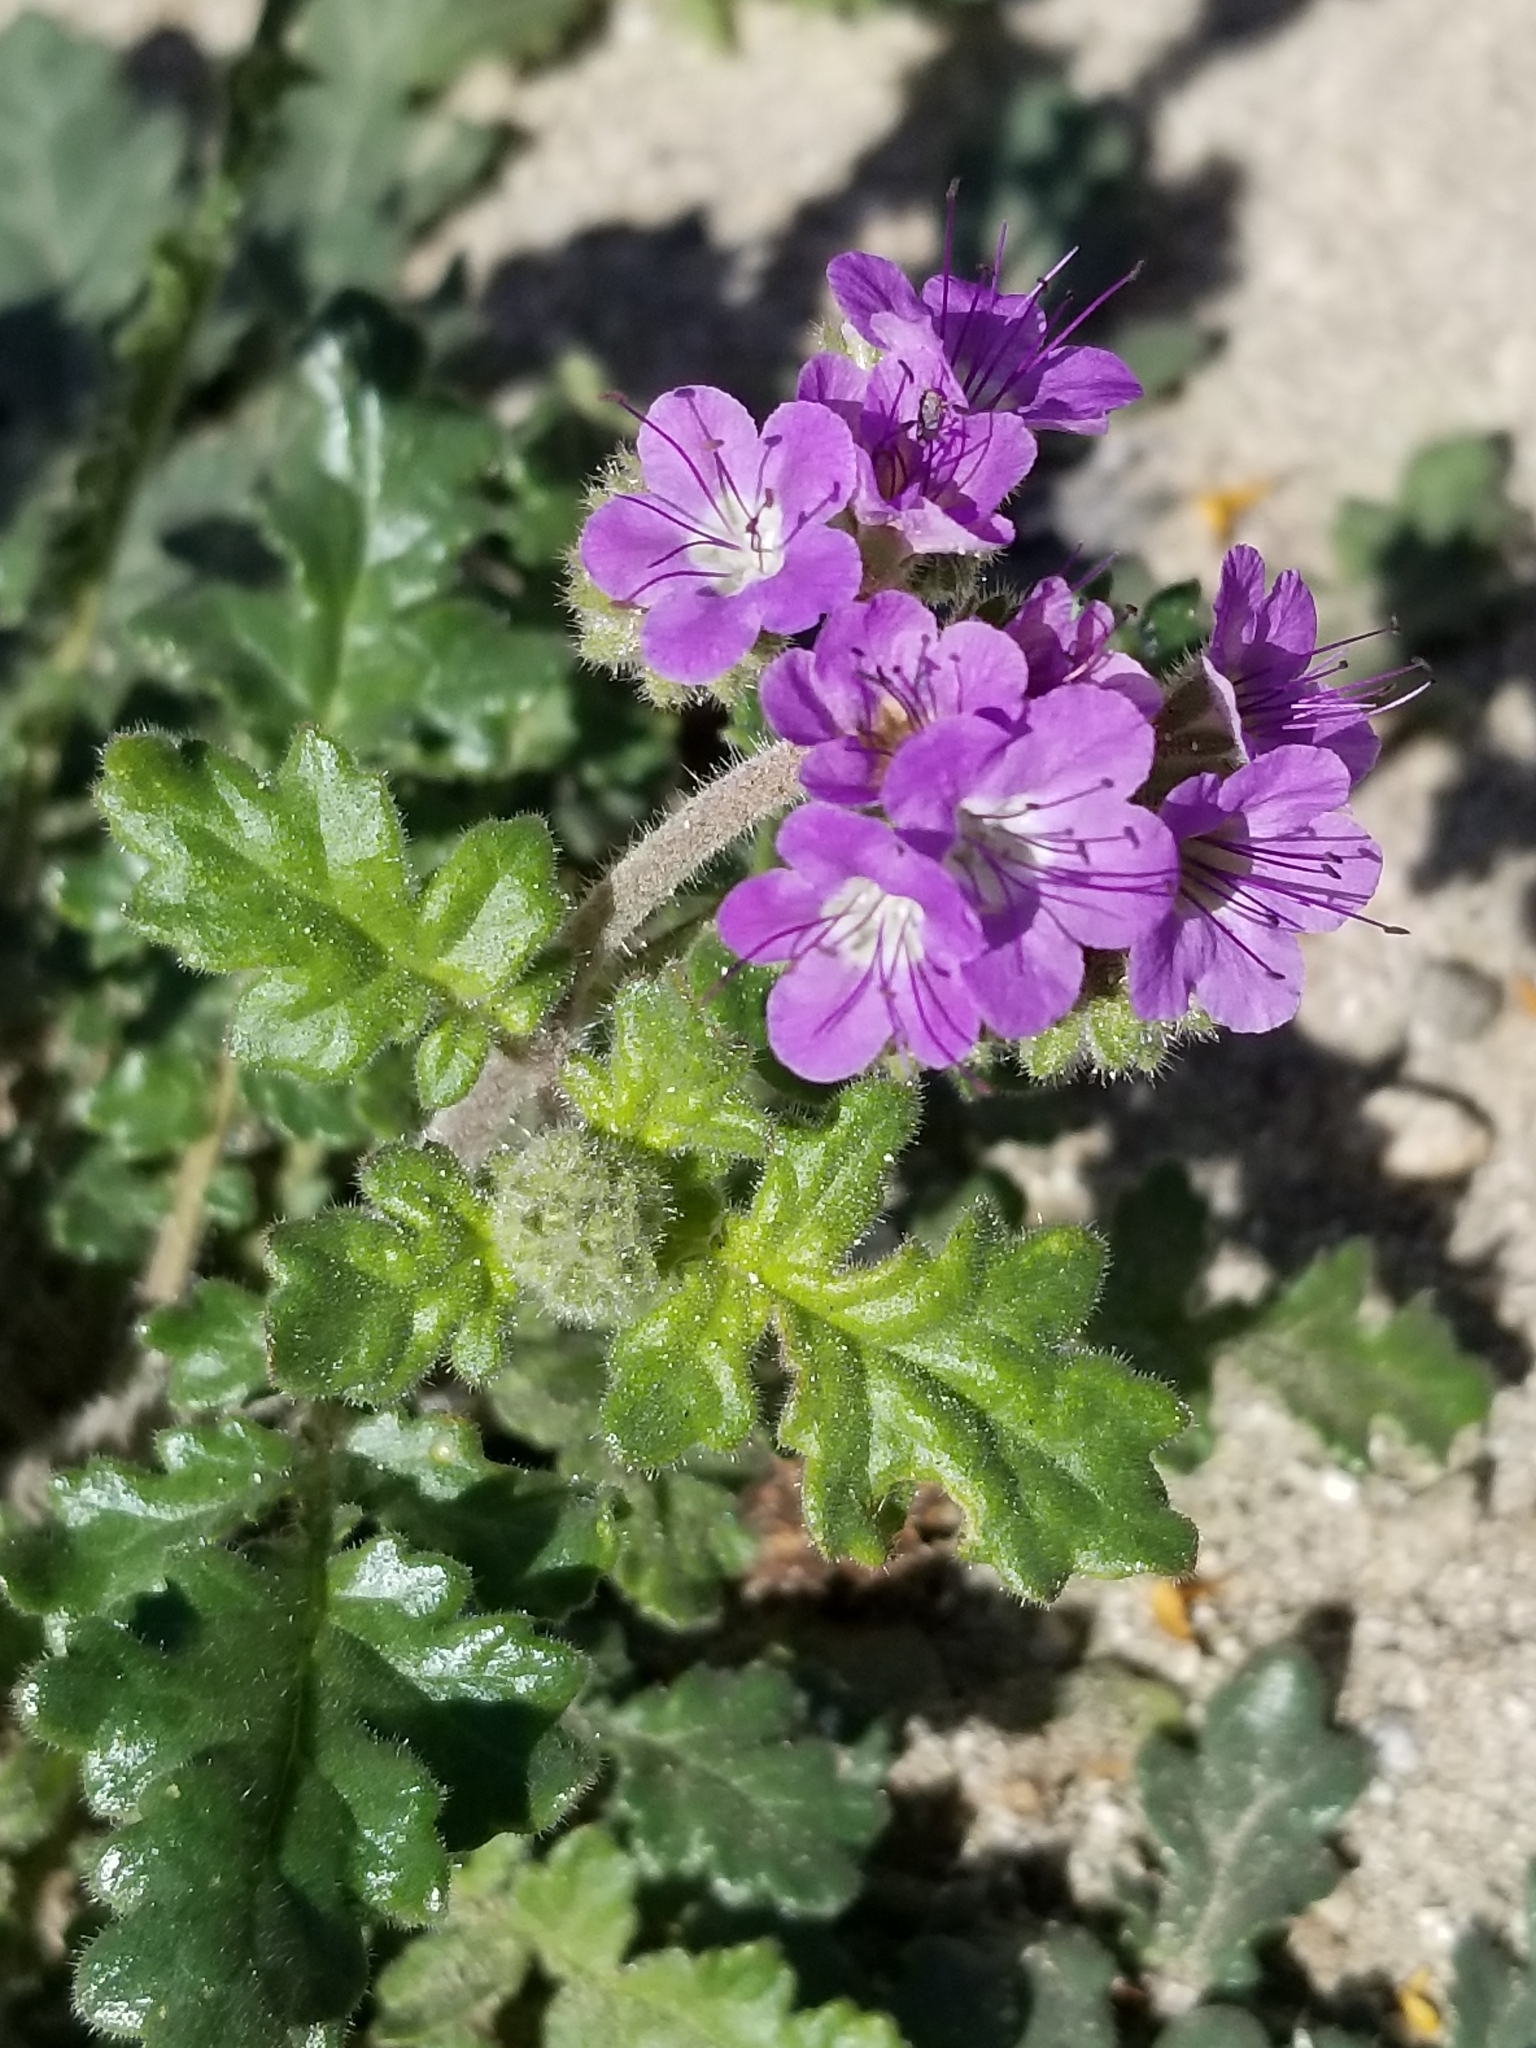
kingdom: Plantae
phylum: Tracheophyta
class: Magnoliopsida
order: Boraginales
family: Hydrophyllaceae
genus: Phacelia
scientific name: Phacelia crenulata
